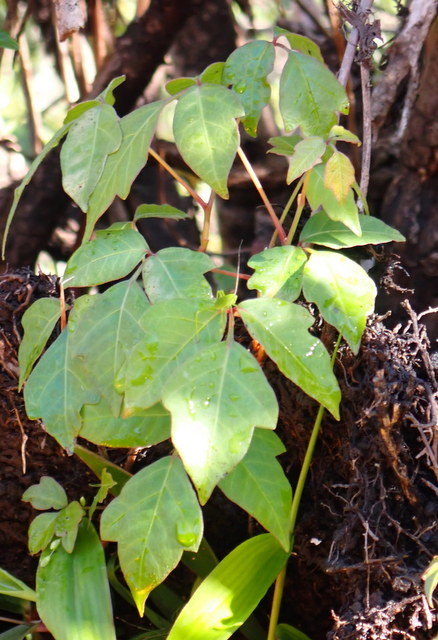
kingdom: Plantae
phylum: Tracheophyta
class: Magnoliopsida
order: Sapindales
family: Anacardiaceae
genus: Toxicodendron
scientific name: Toxicodendron radicans
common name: Poison ivy
